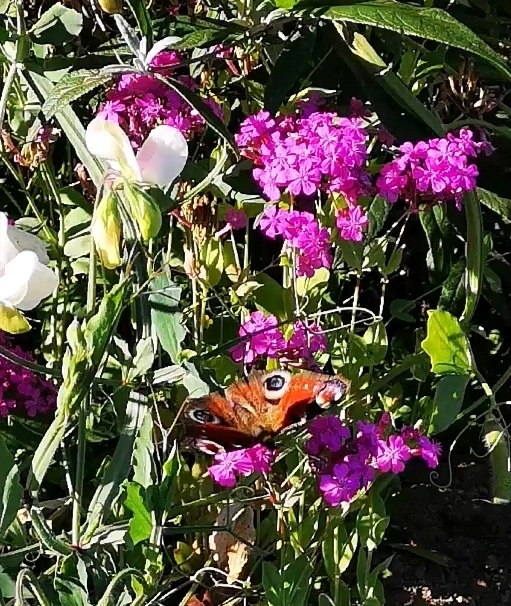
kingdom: Animalia
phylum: Arthropoda
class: Insecta
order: Lepidoptera
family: Nymphalidae
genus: Aglais
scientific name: Aglais io
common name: Peacock
